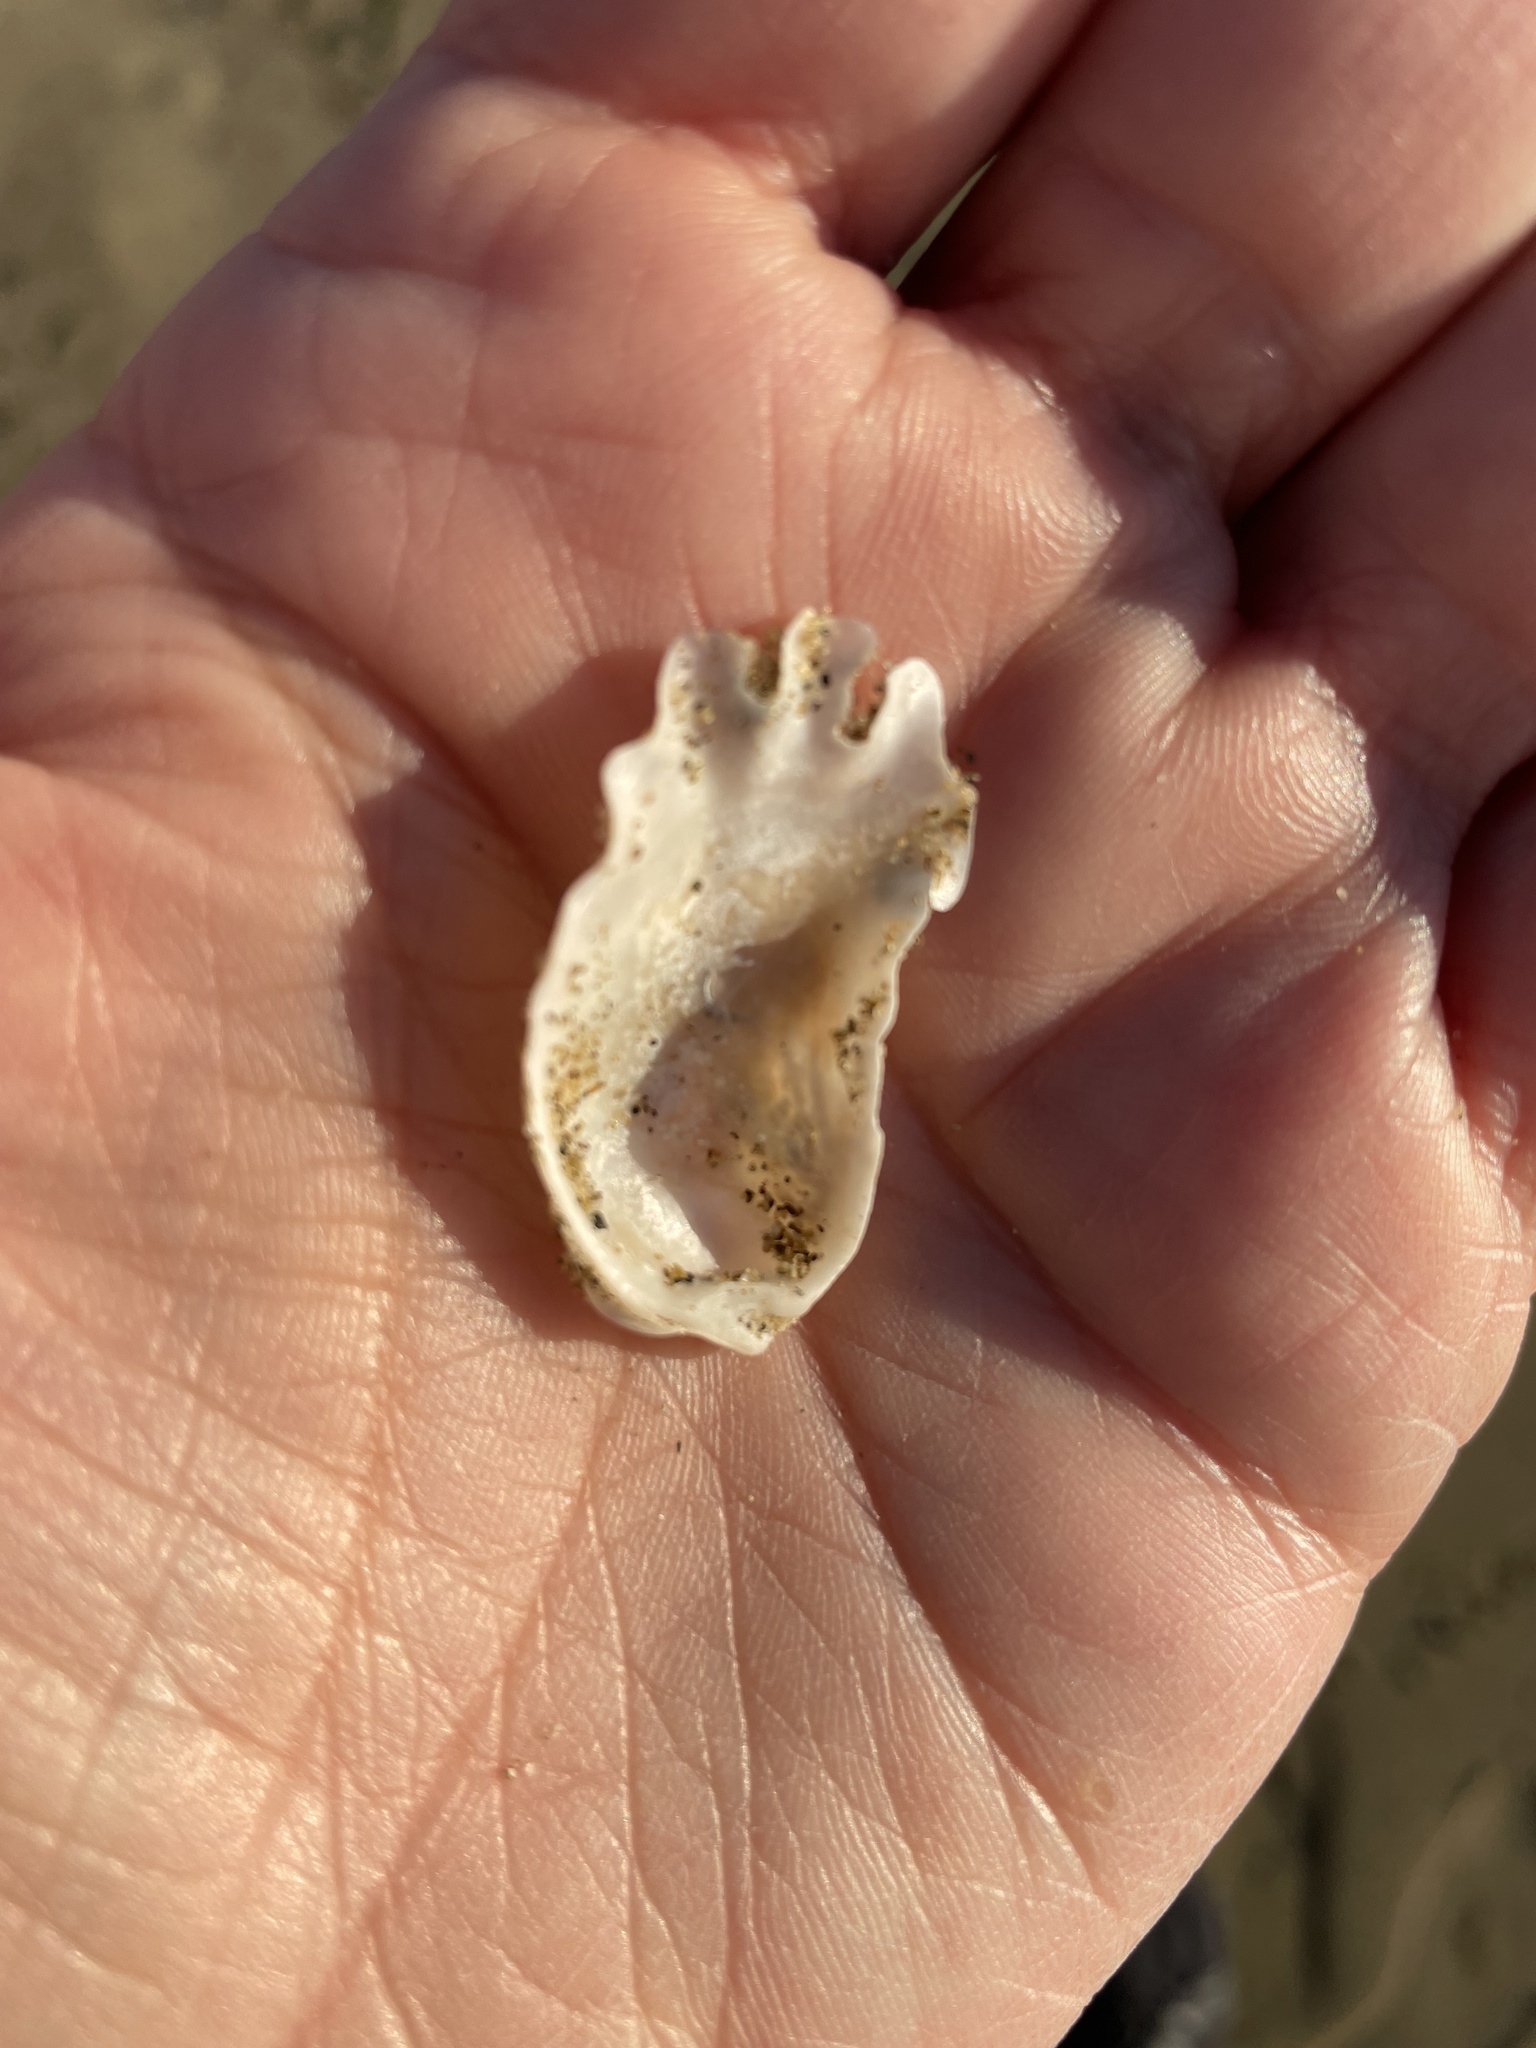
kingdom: Animalia
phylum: Mollusca
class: Bivalvia
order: Ostreida
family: Ostreidae
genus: Ostrea
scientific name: Ostrea lurida
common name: Olympia flat oyster
